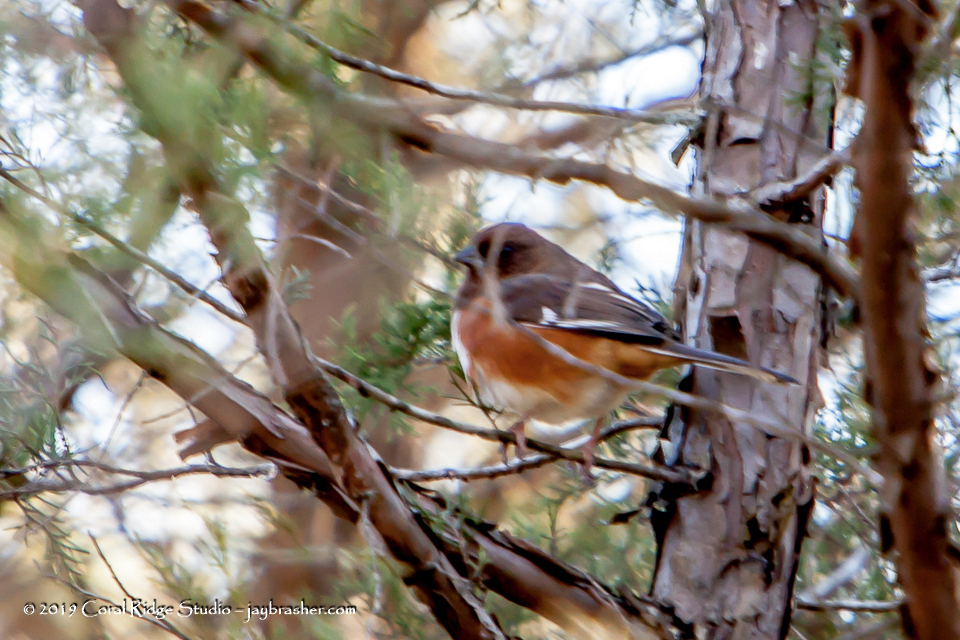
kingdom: Animalia
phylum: Chordata
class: Aves
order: Passeriformes
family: Passerellidae
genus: Pipilo
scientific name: Pipilo erythrophthalmus
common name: Eastern towhee
